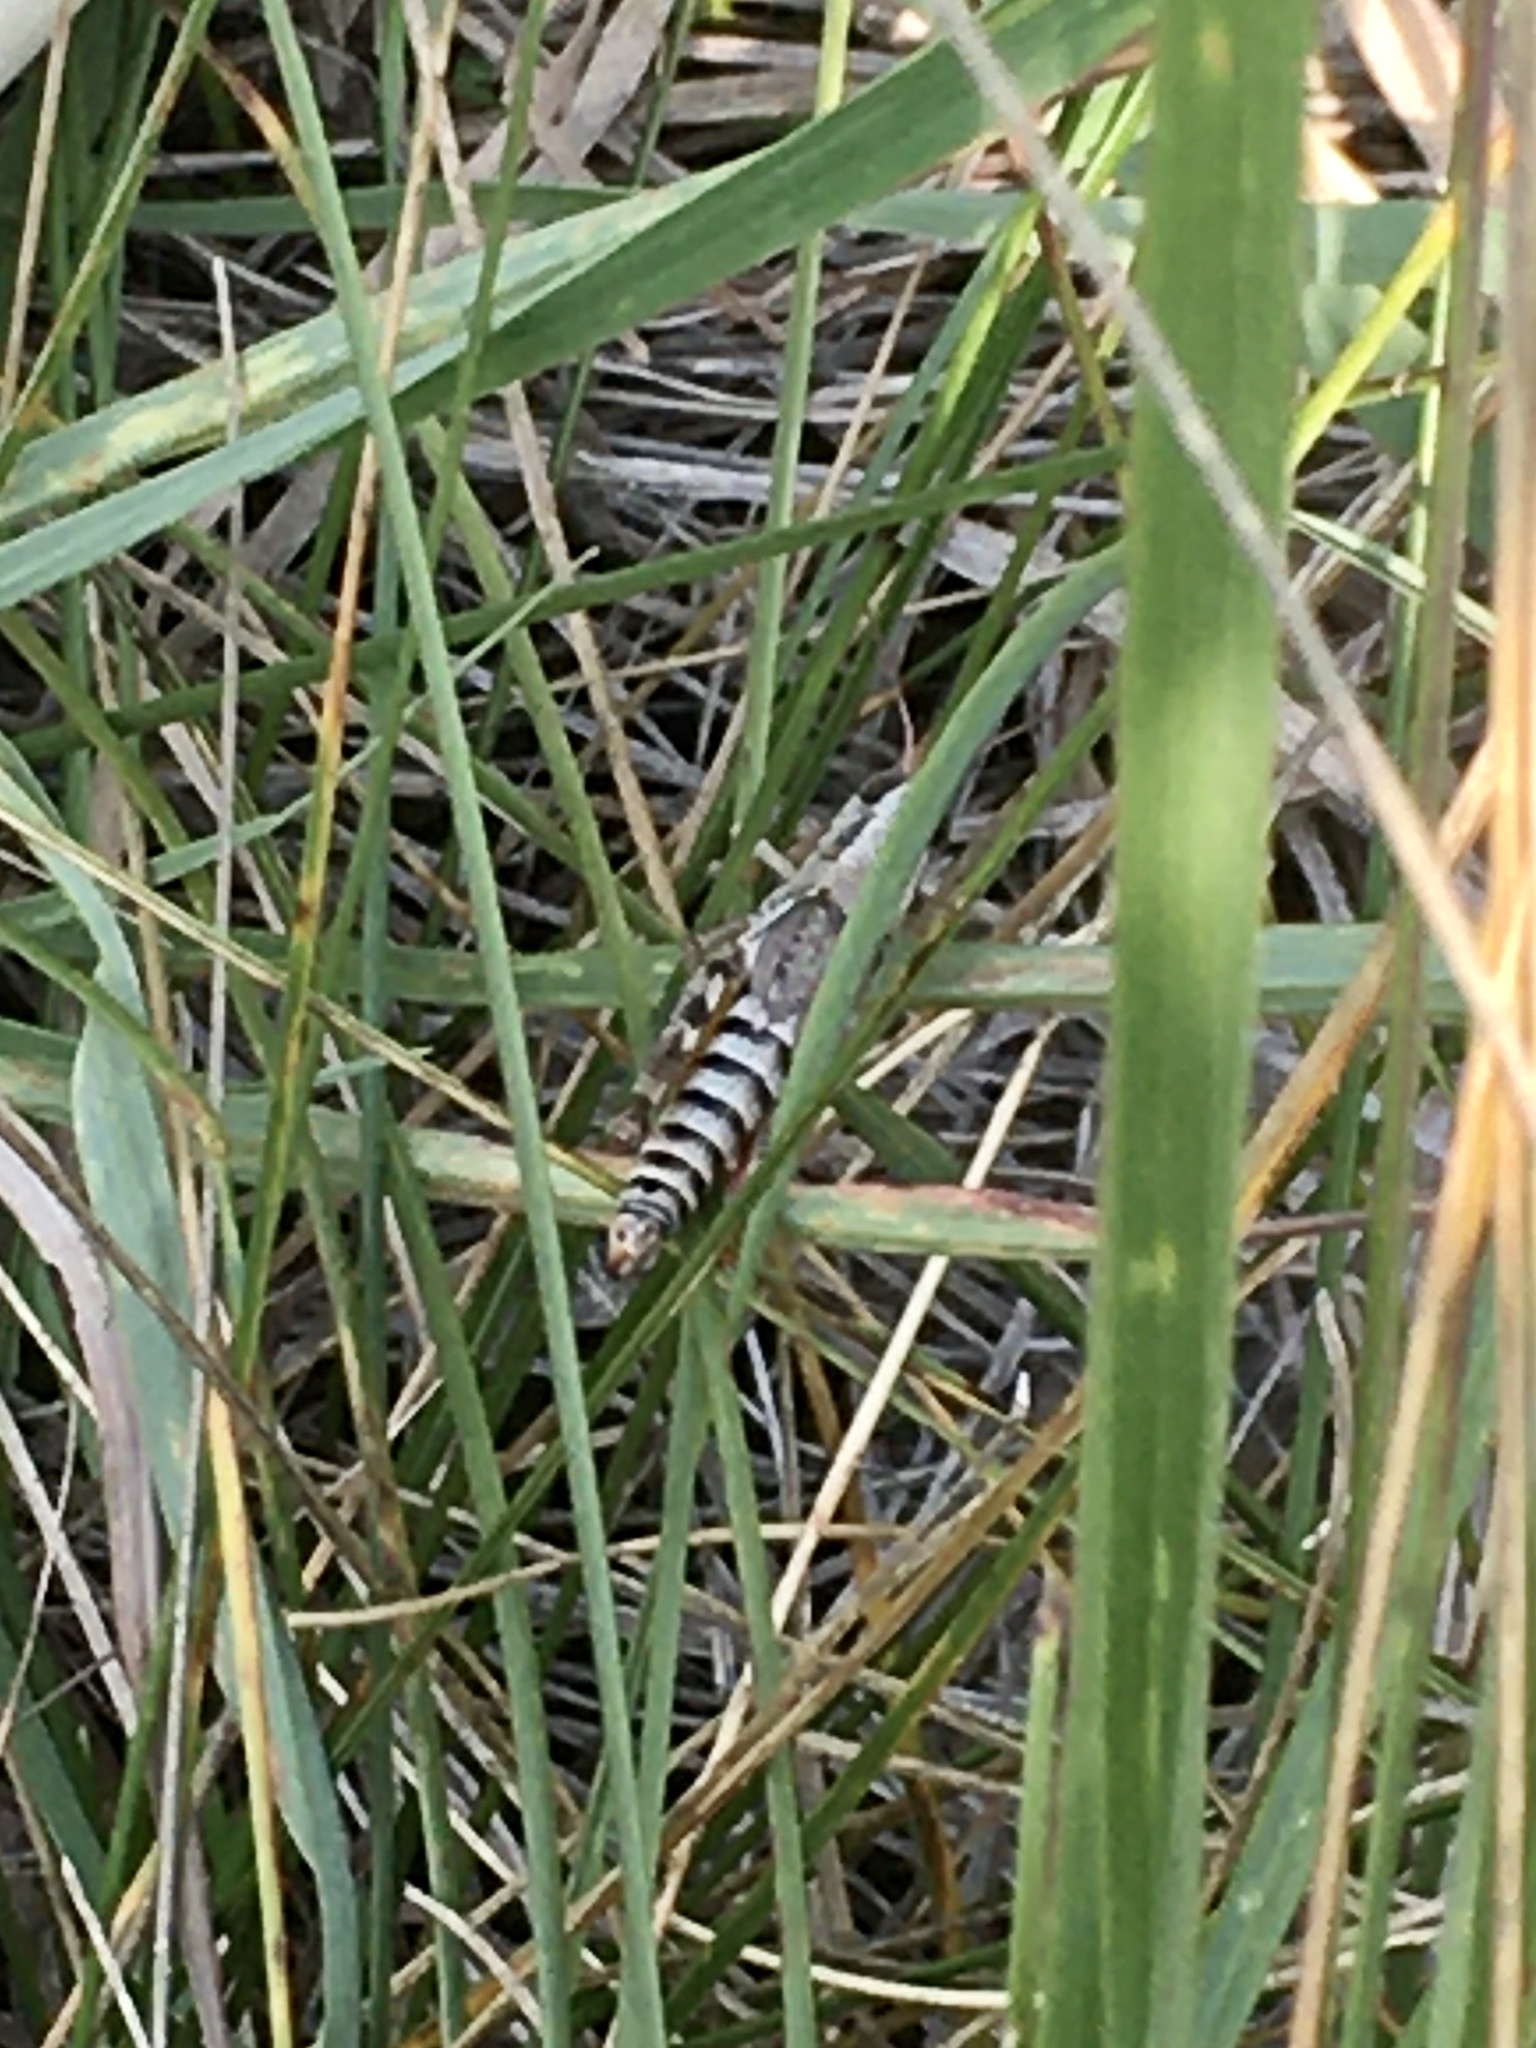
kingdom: Animalia
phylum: Arthropoda
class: Insecta
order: Orthoptera
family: Acrididae
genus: Melanoplus
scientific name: Melanoplus dawsoni
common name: Dawson grasshopper
